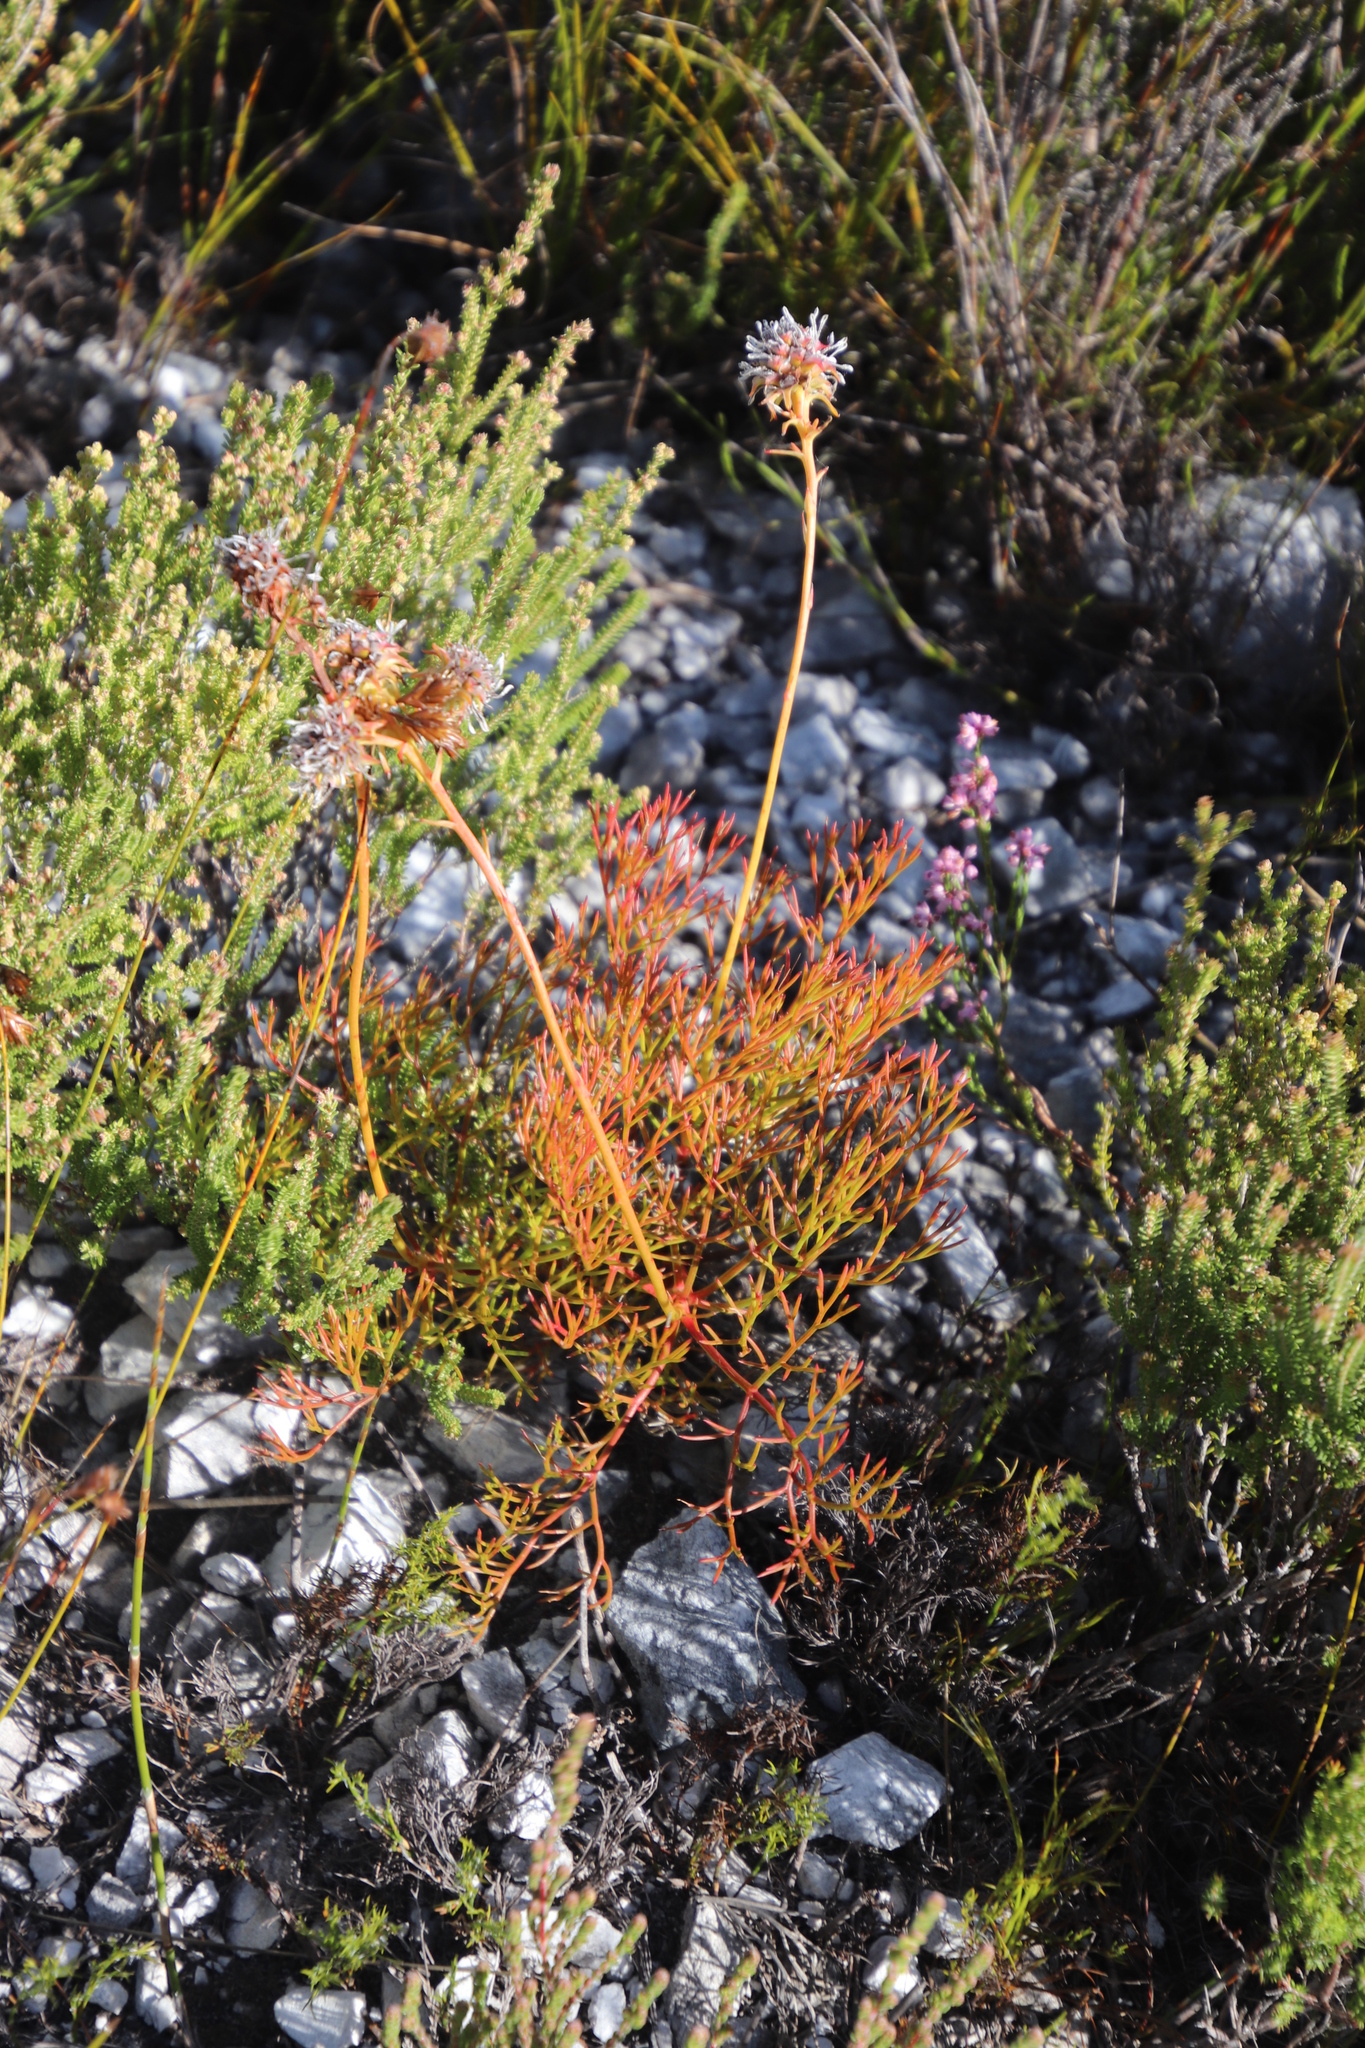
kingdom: Plantae
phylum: Tracheophyta
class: Magnoliopsida
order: Proteales
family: Proteaceae
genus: Serruria
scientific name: Serruria elongata
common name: Long-stalk spiderhead
